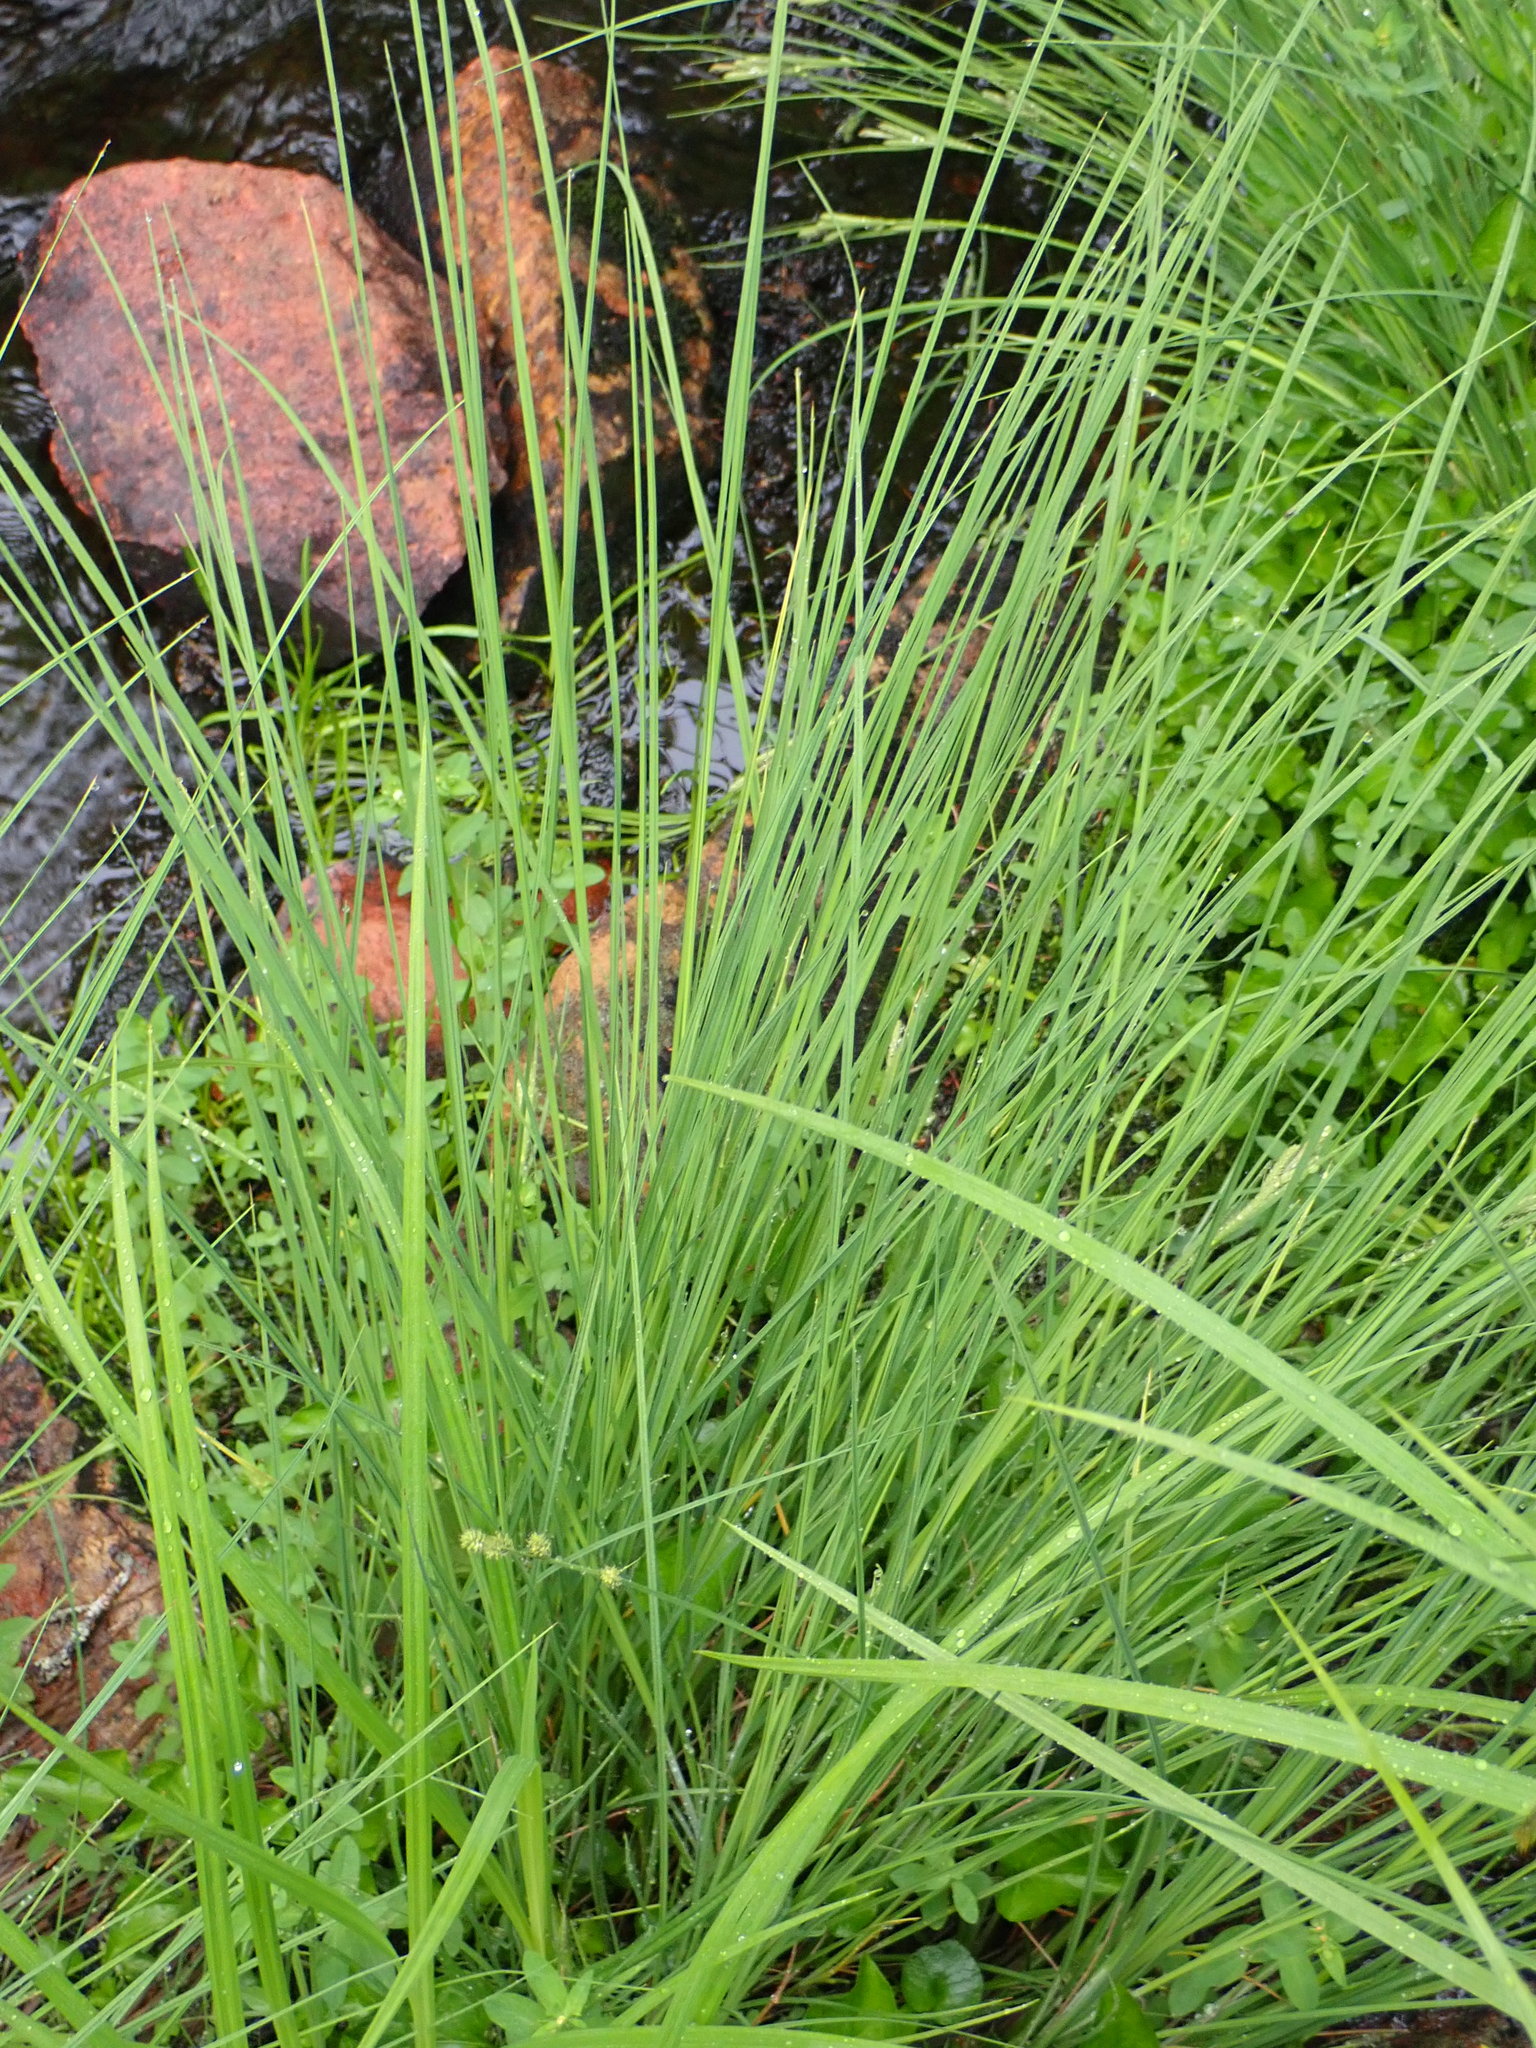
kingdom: Plantae
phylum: Tracheophyta
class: Liliopsida
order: Poales
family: Cyperaceae
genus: Carex
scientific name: Carex canescens
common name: White sedge
